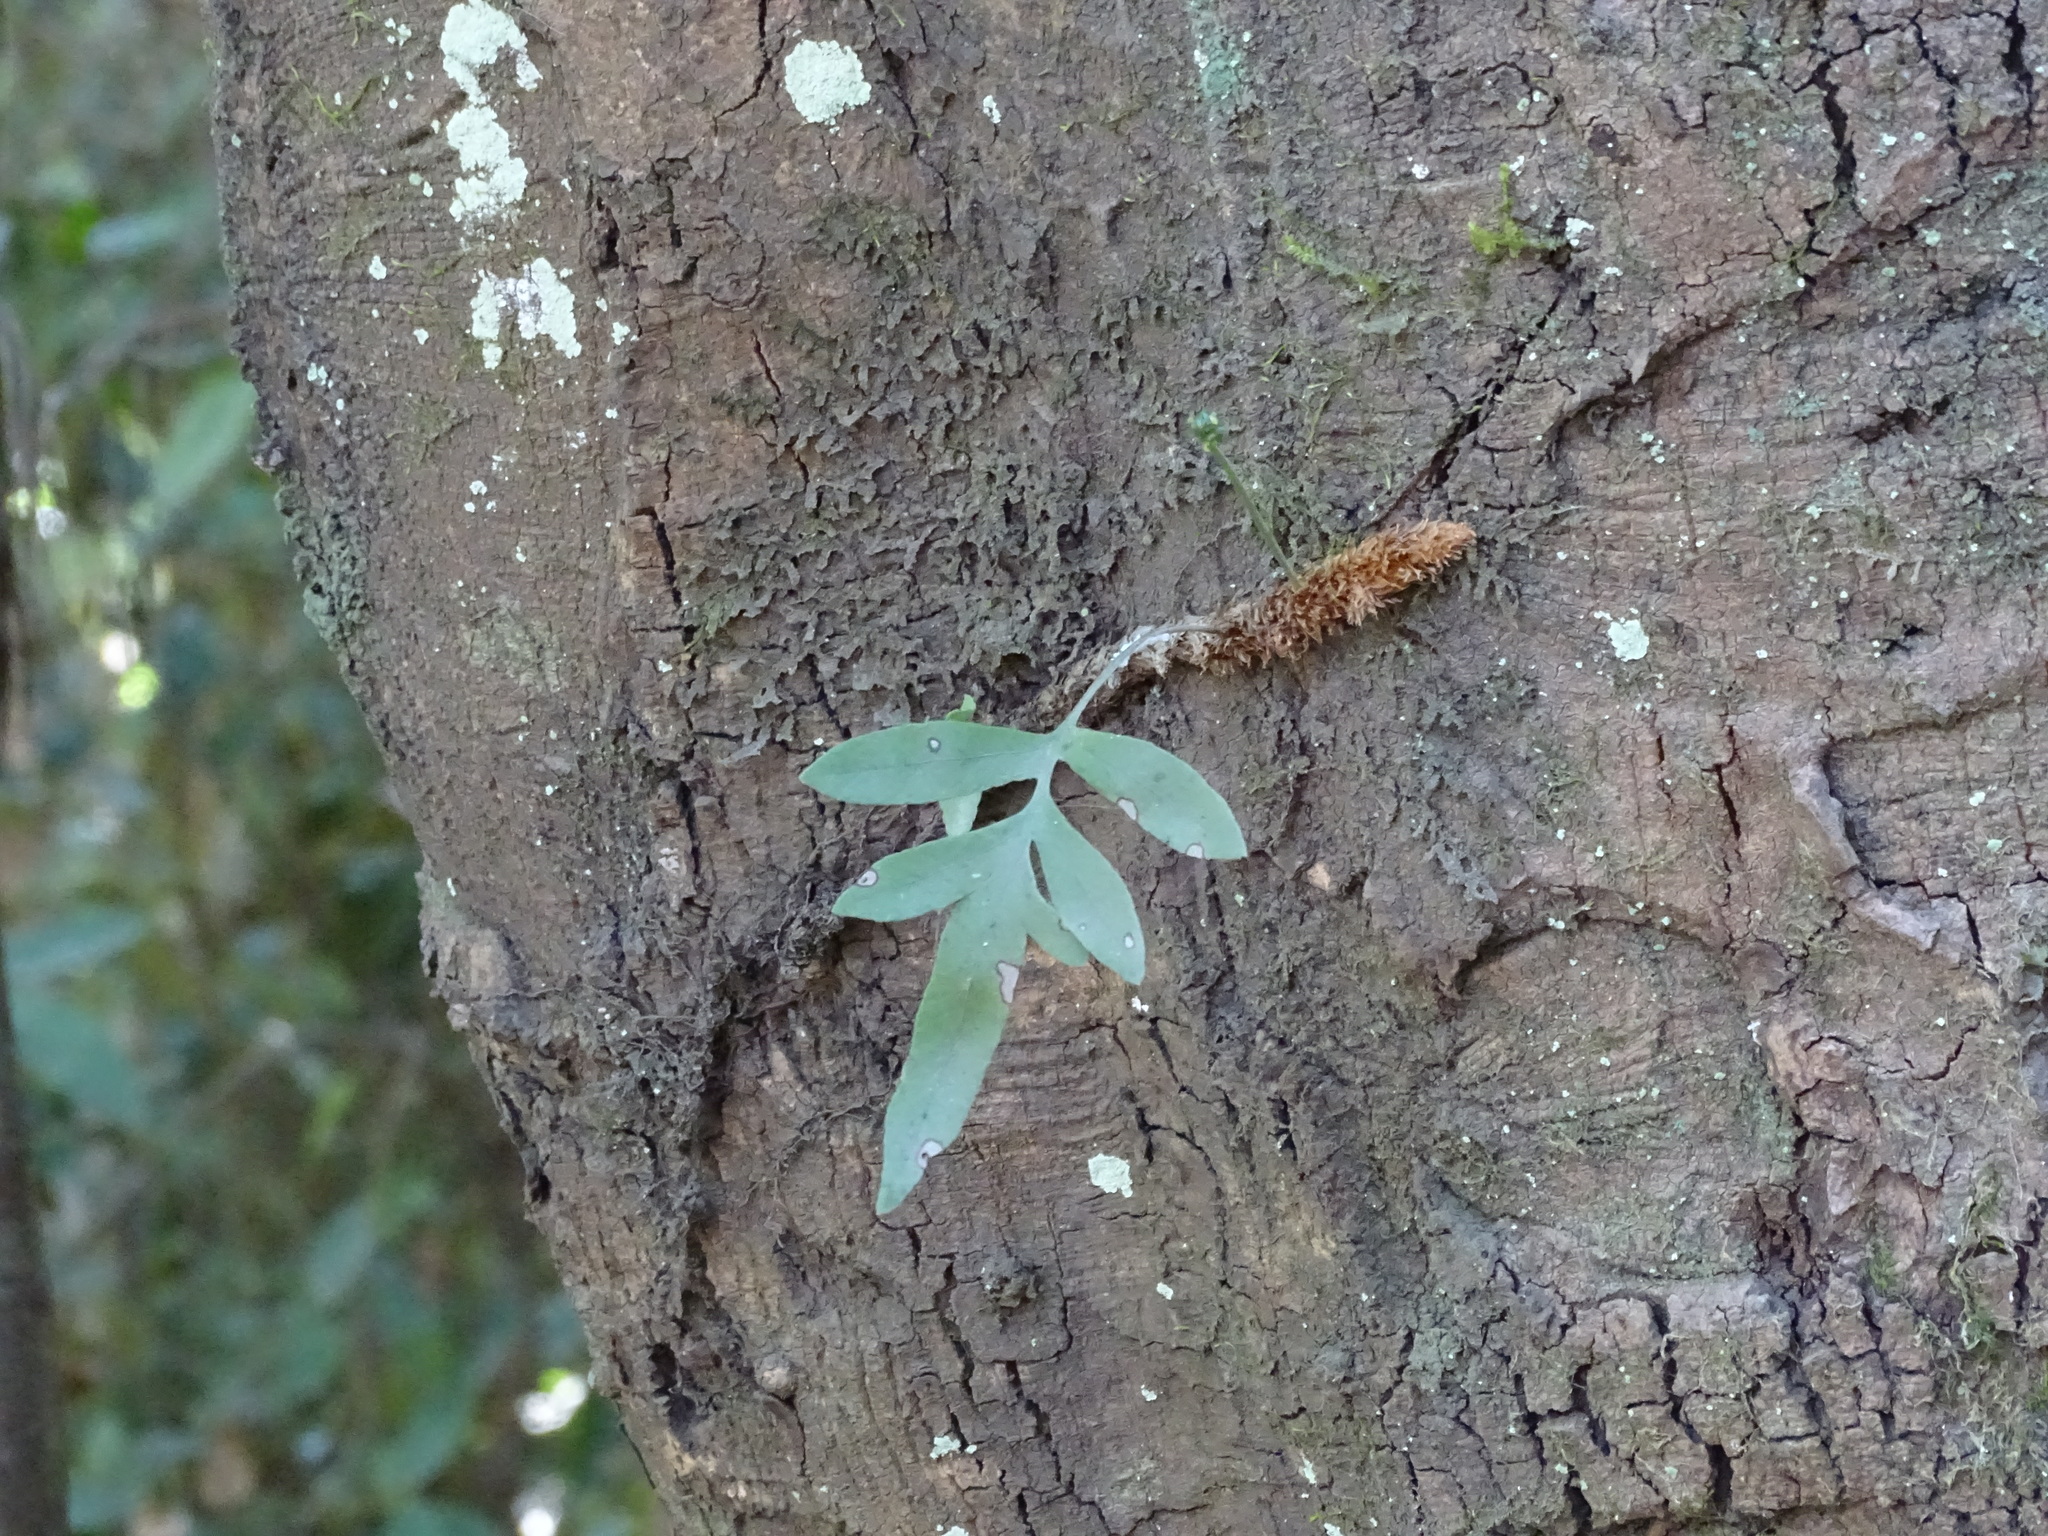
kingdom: Plantae
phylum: Tracheophyta
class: Polypodiopsida
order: Polypodiales
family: Polypodiaceae
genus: Synammia
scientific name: Synammia feuillei
